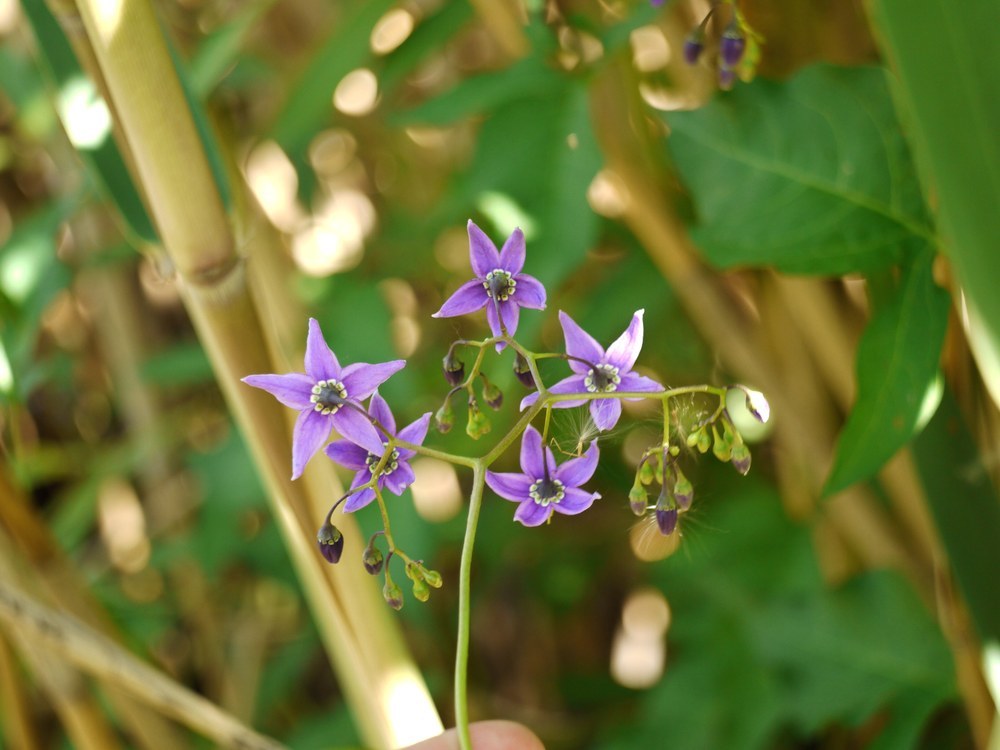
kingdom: Plantae
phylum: Tracheophyta
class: Magnoliopsida
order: Solanales
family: Solanaceae
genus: Solanum
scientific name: Solanum dulcamara
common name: Climbing nightshade
